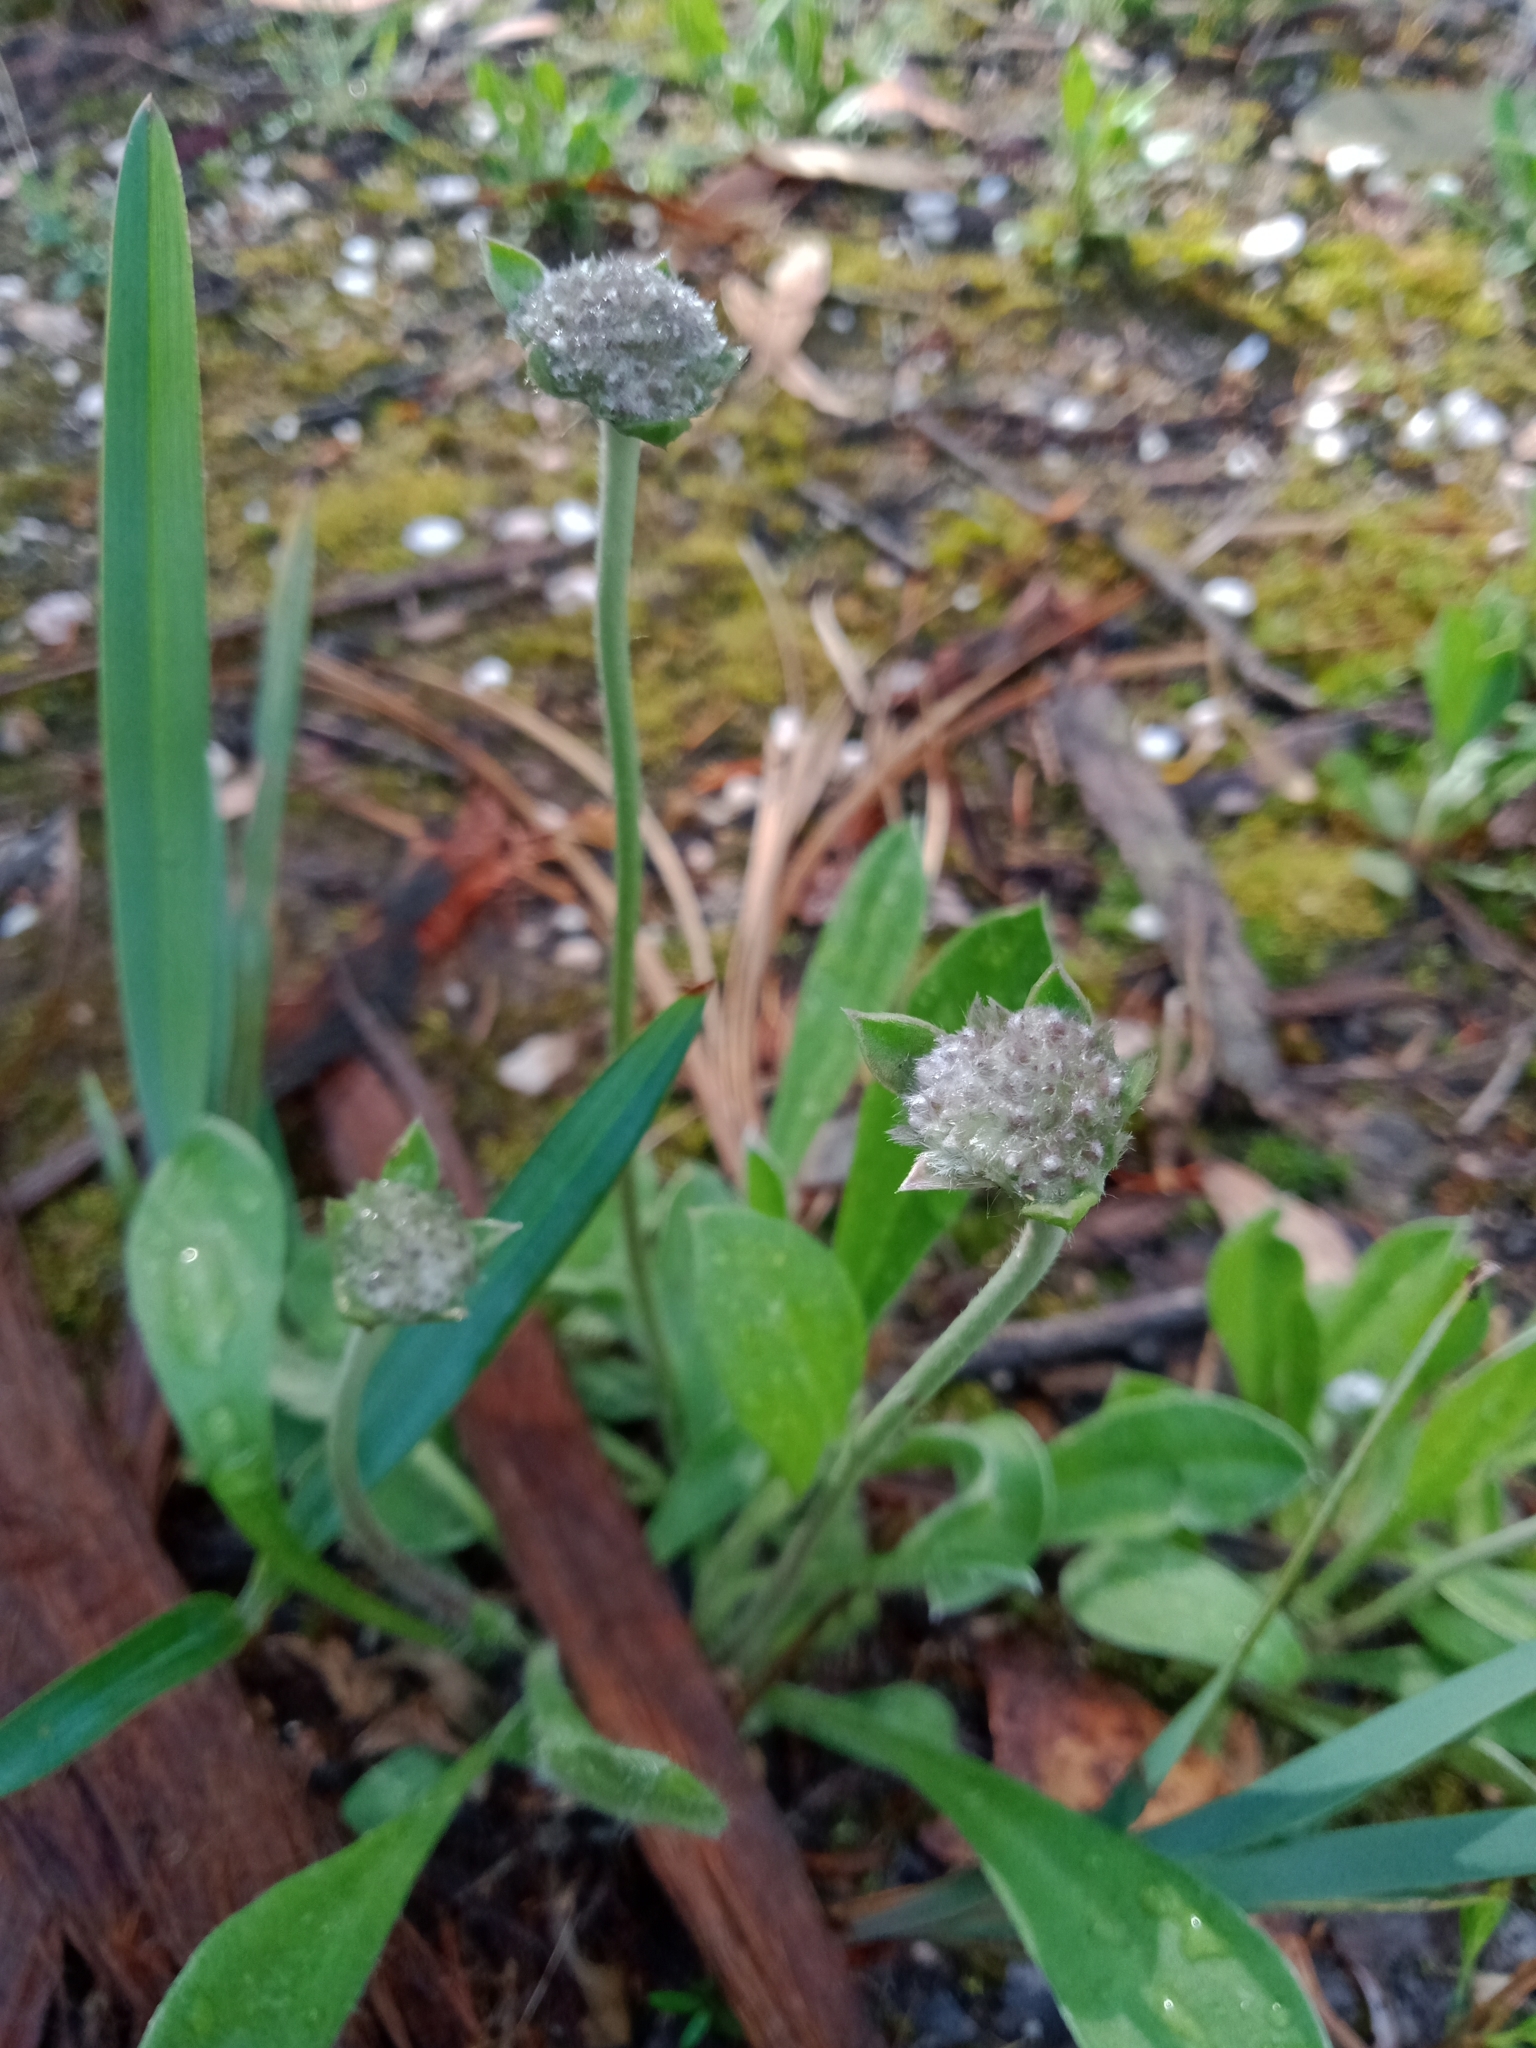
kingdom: Plantae
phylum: Tracheophyta
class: Magnoliopsida
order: Asterales
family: Goodeniaceae
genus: Brunonia
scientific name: Brunonia australis
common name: Blue pincushion
